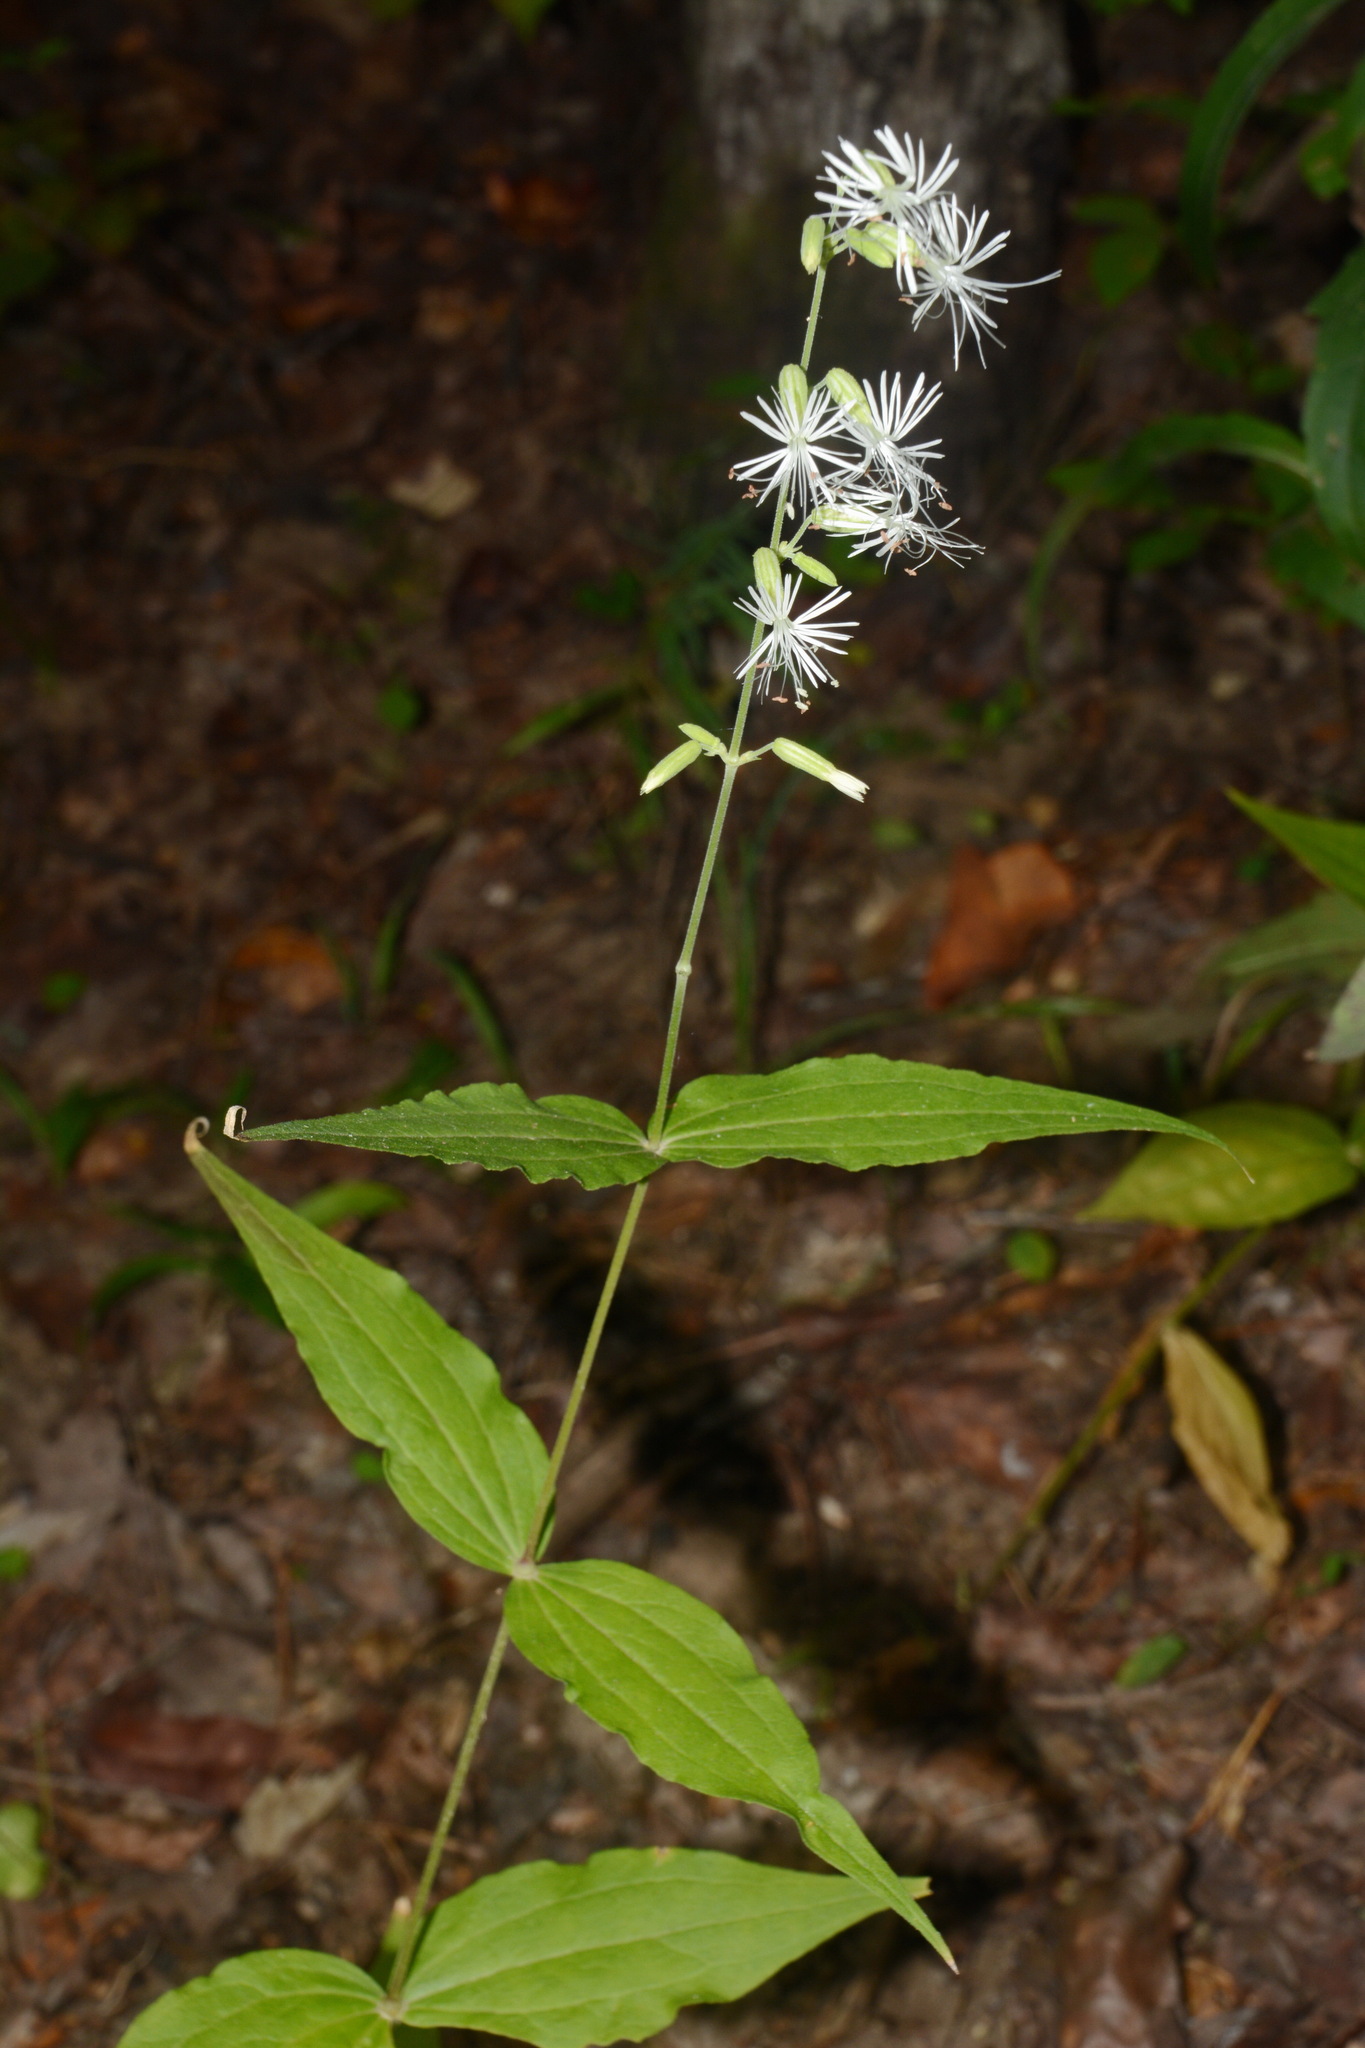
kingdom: Plantae
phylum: Tracheophyta
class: Magnoliopsida
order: Caryophyllales
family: Caryophyllaceae
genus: Silene
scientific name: Silene ovata
